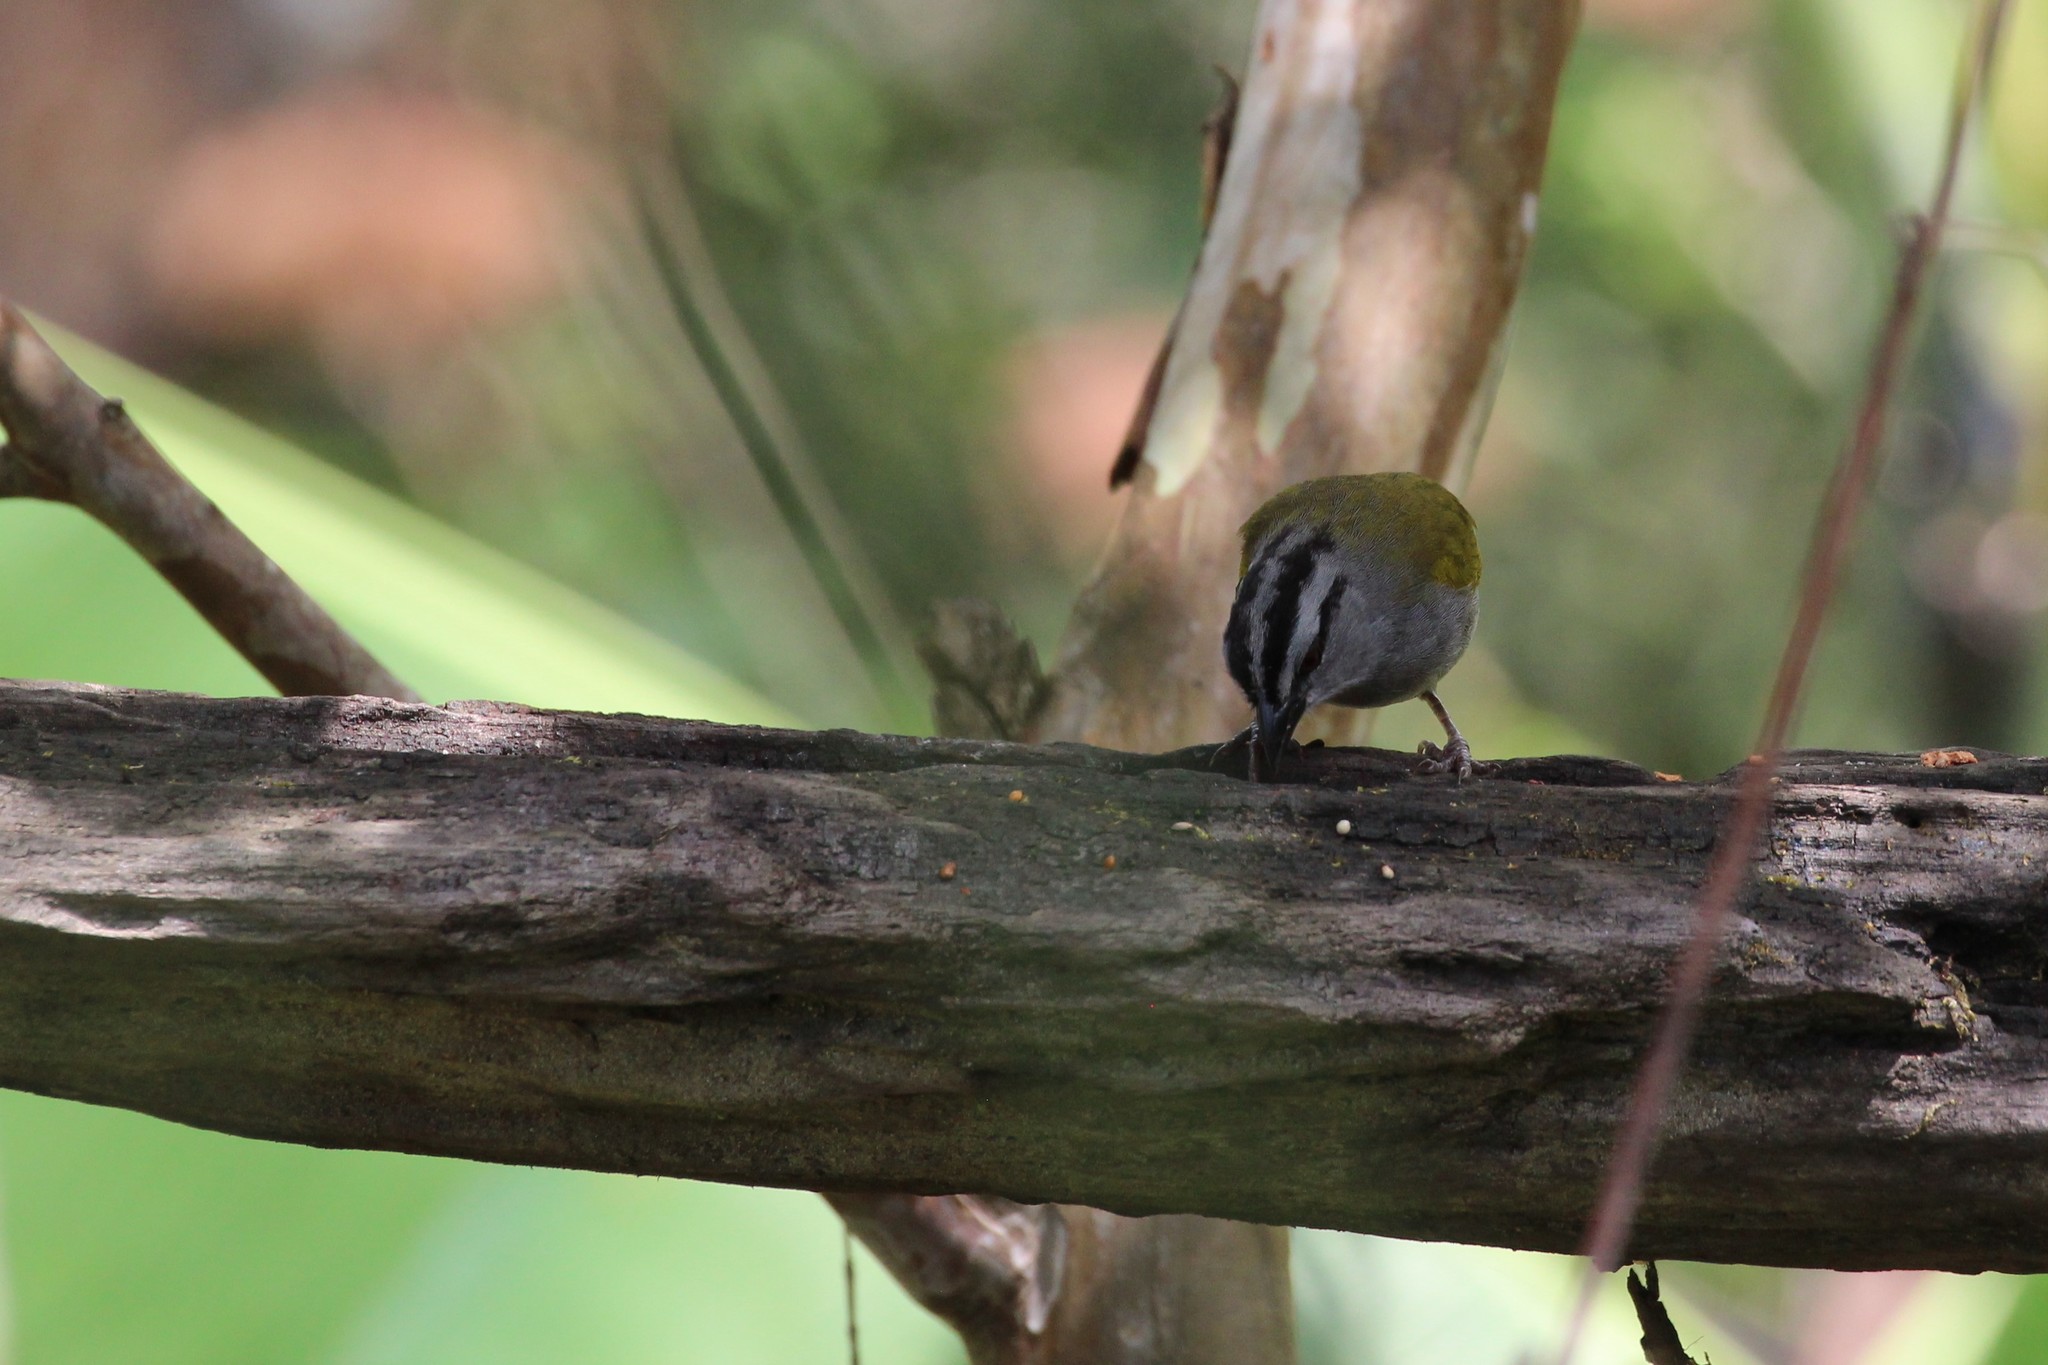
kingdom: Animalia
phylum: Chordata
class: Aves
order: Passeriformes
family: Passerellidae
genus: Arremonops
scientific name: Arremonops conirostris
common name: Black-striped sparrow
